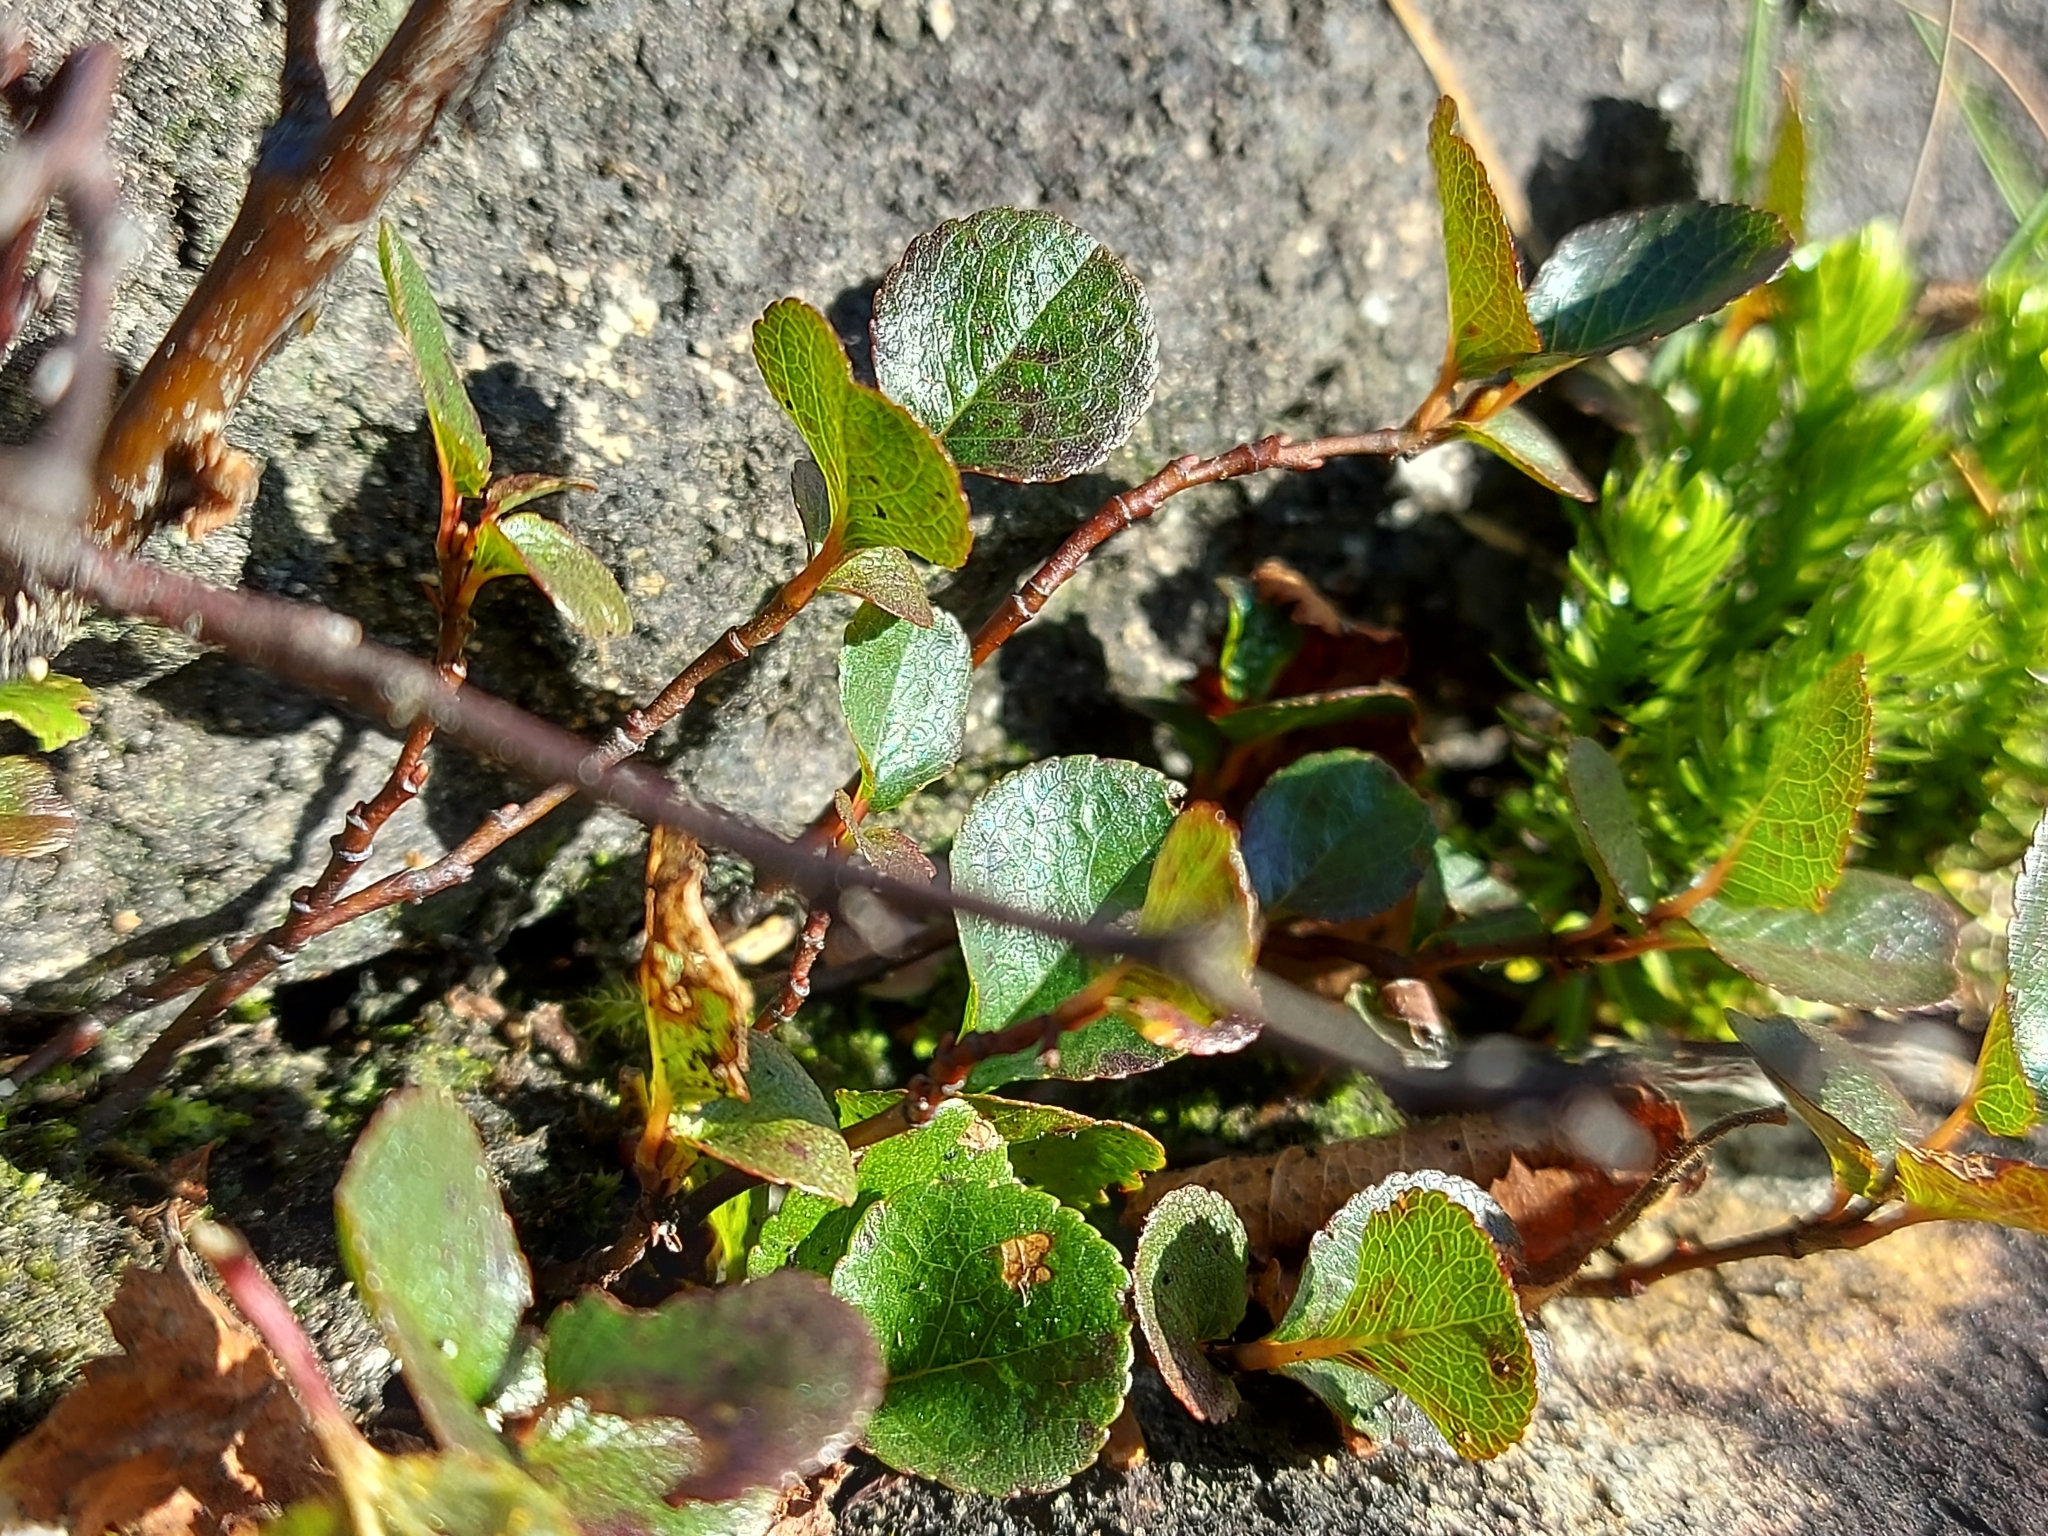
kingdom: Plantae
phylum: Tracheophyta
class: Magnoliopsida
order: Fagales
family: Betulaceae
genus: Betula
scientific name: Betula nana
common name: Arctic dwarf birch
